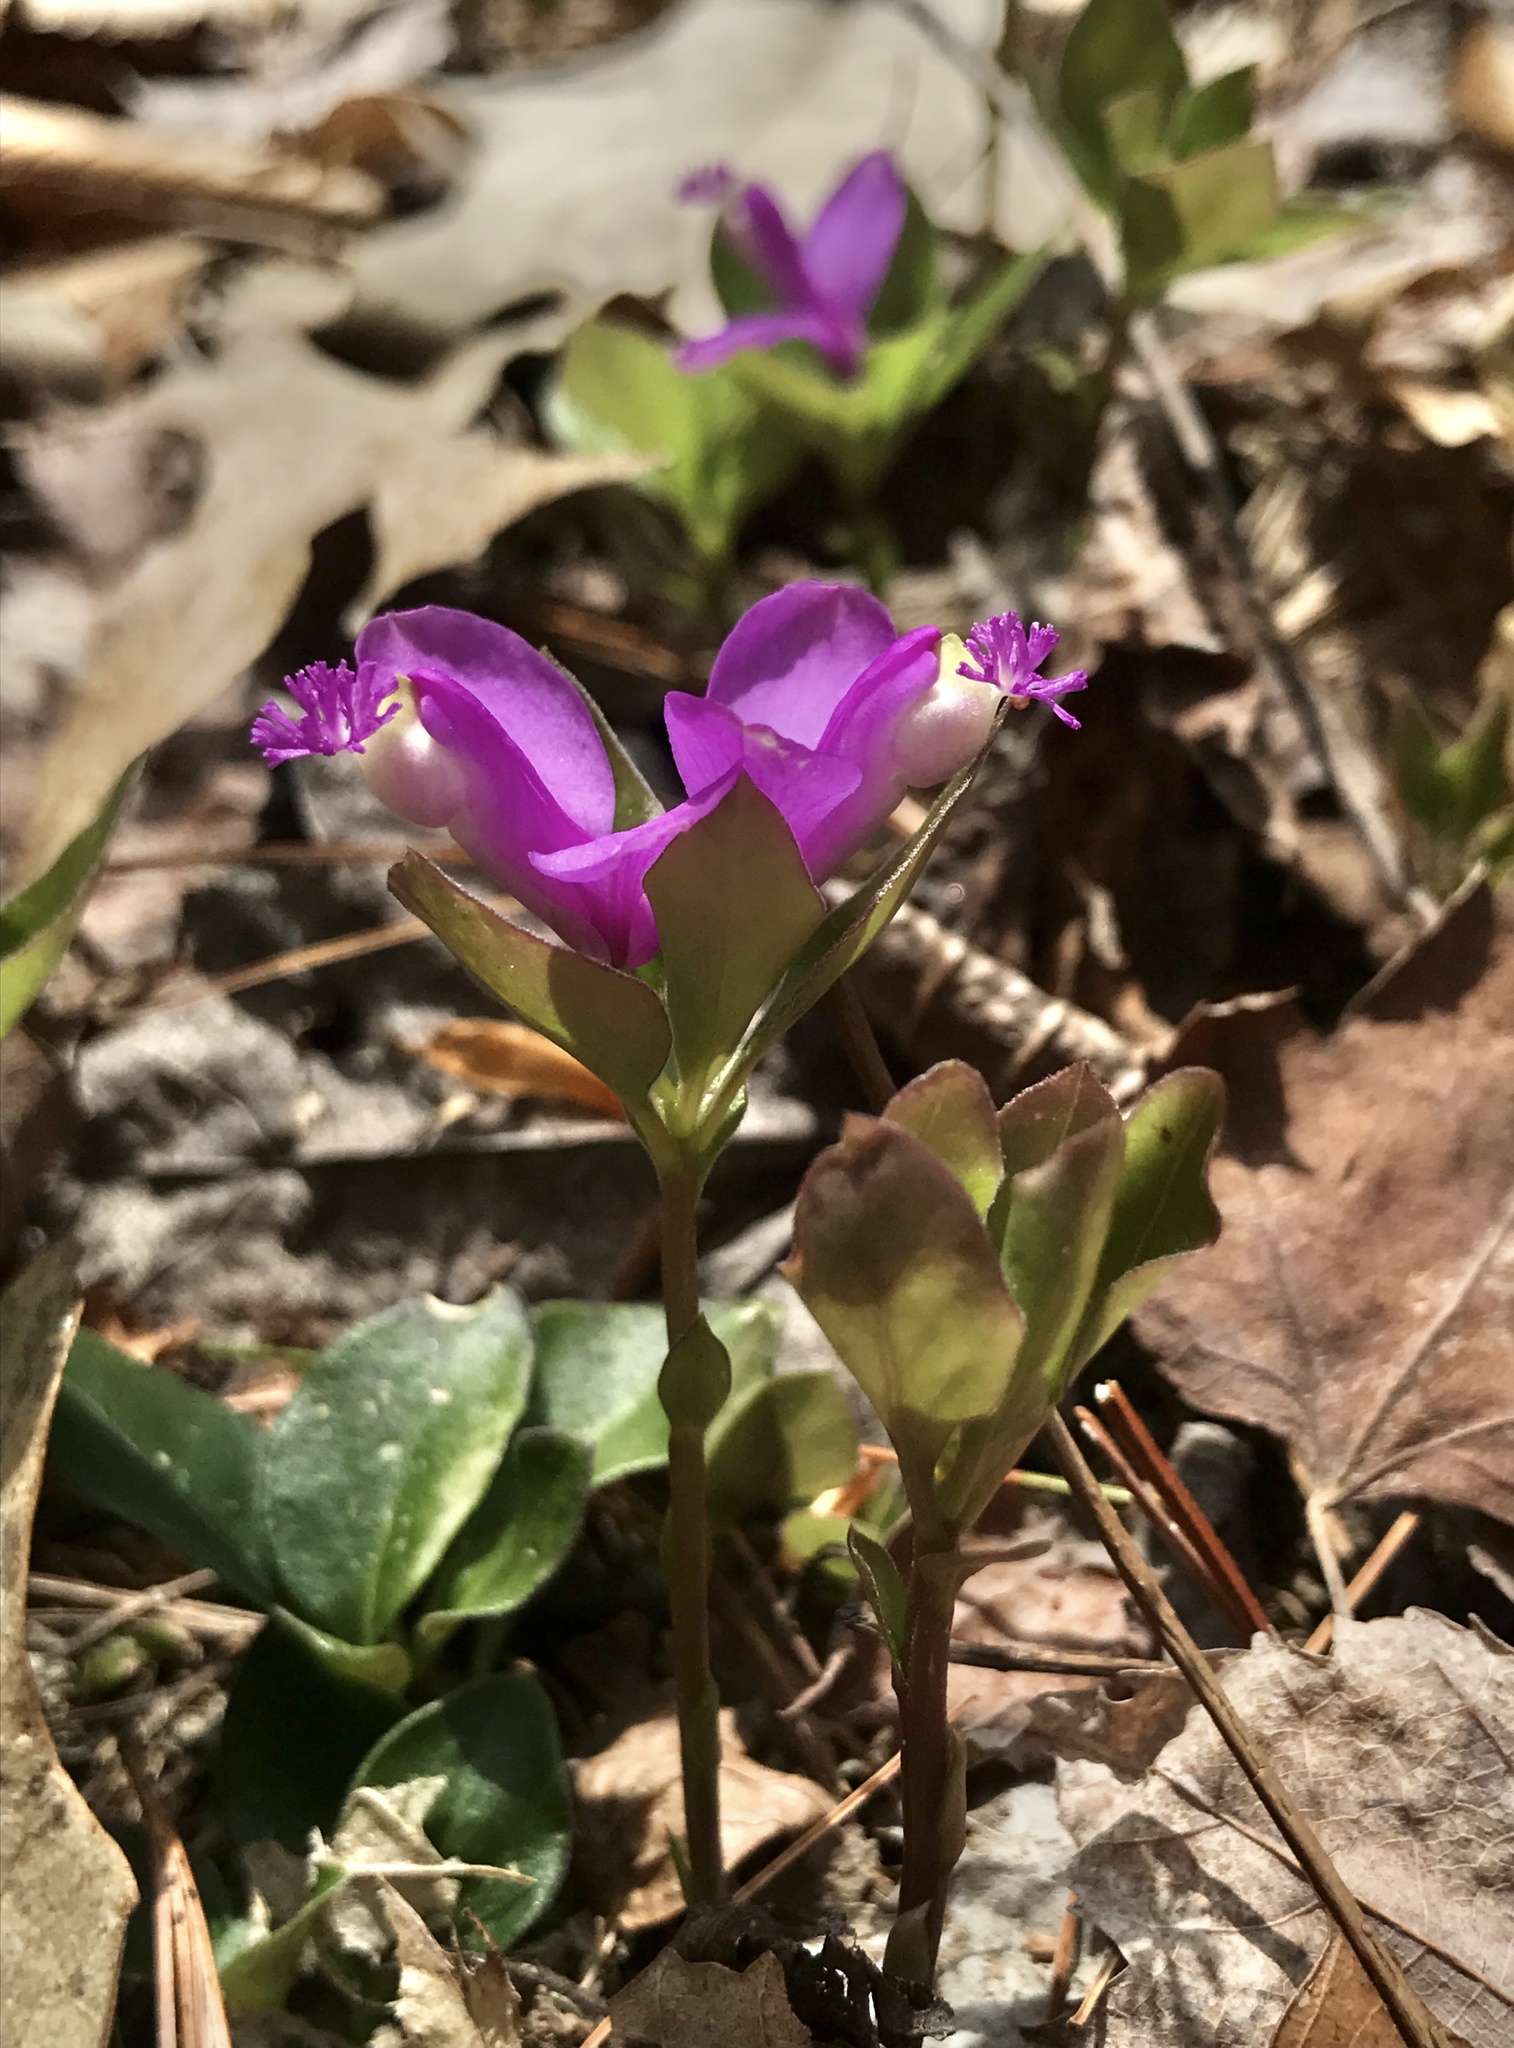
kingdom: Plantae
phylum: Tracheophyta
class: Magnoliopsida
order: Fabales
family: Polygalaceae
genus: Polygaloides
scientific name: Polygaloides paucifolia
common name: Bird-on-the-wing
